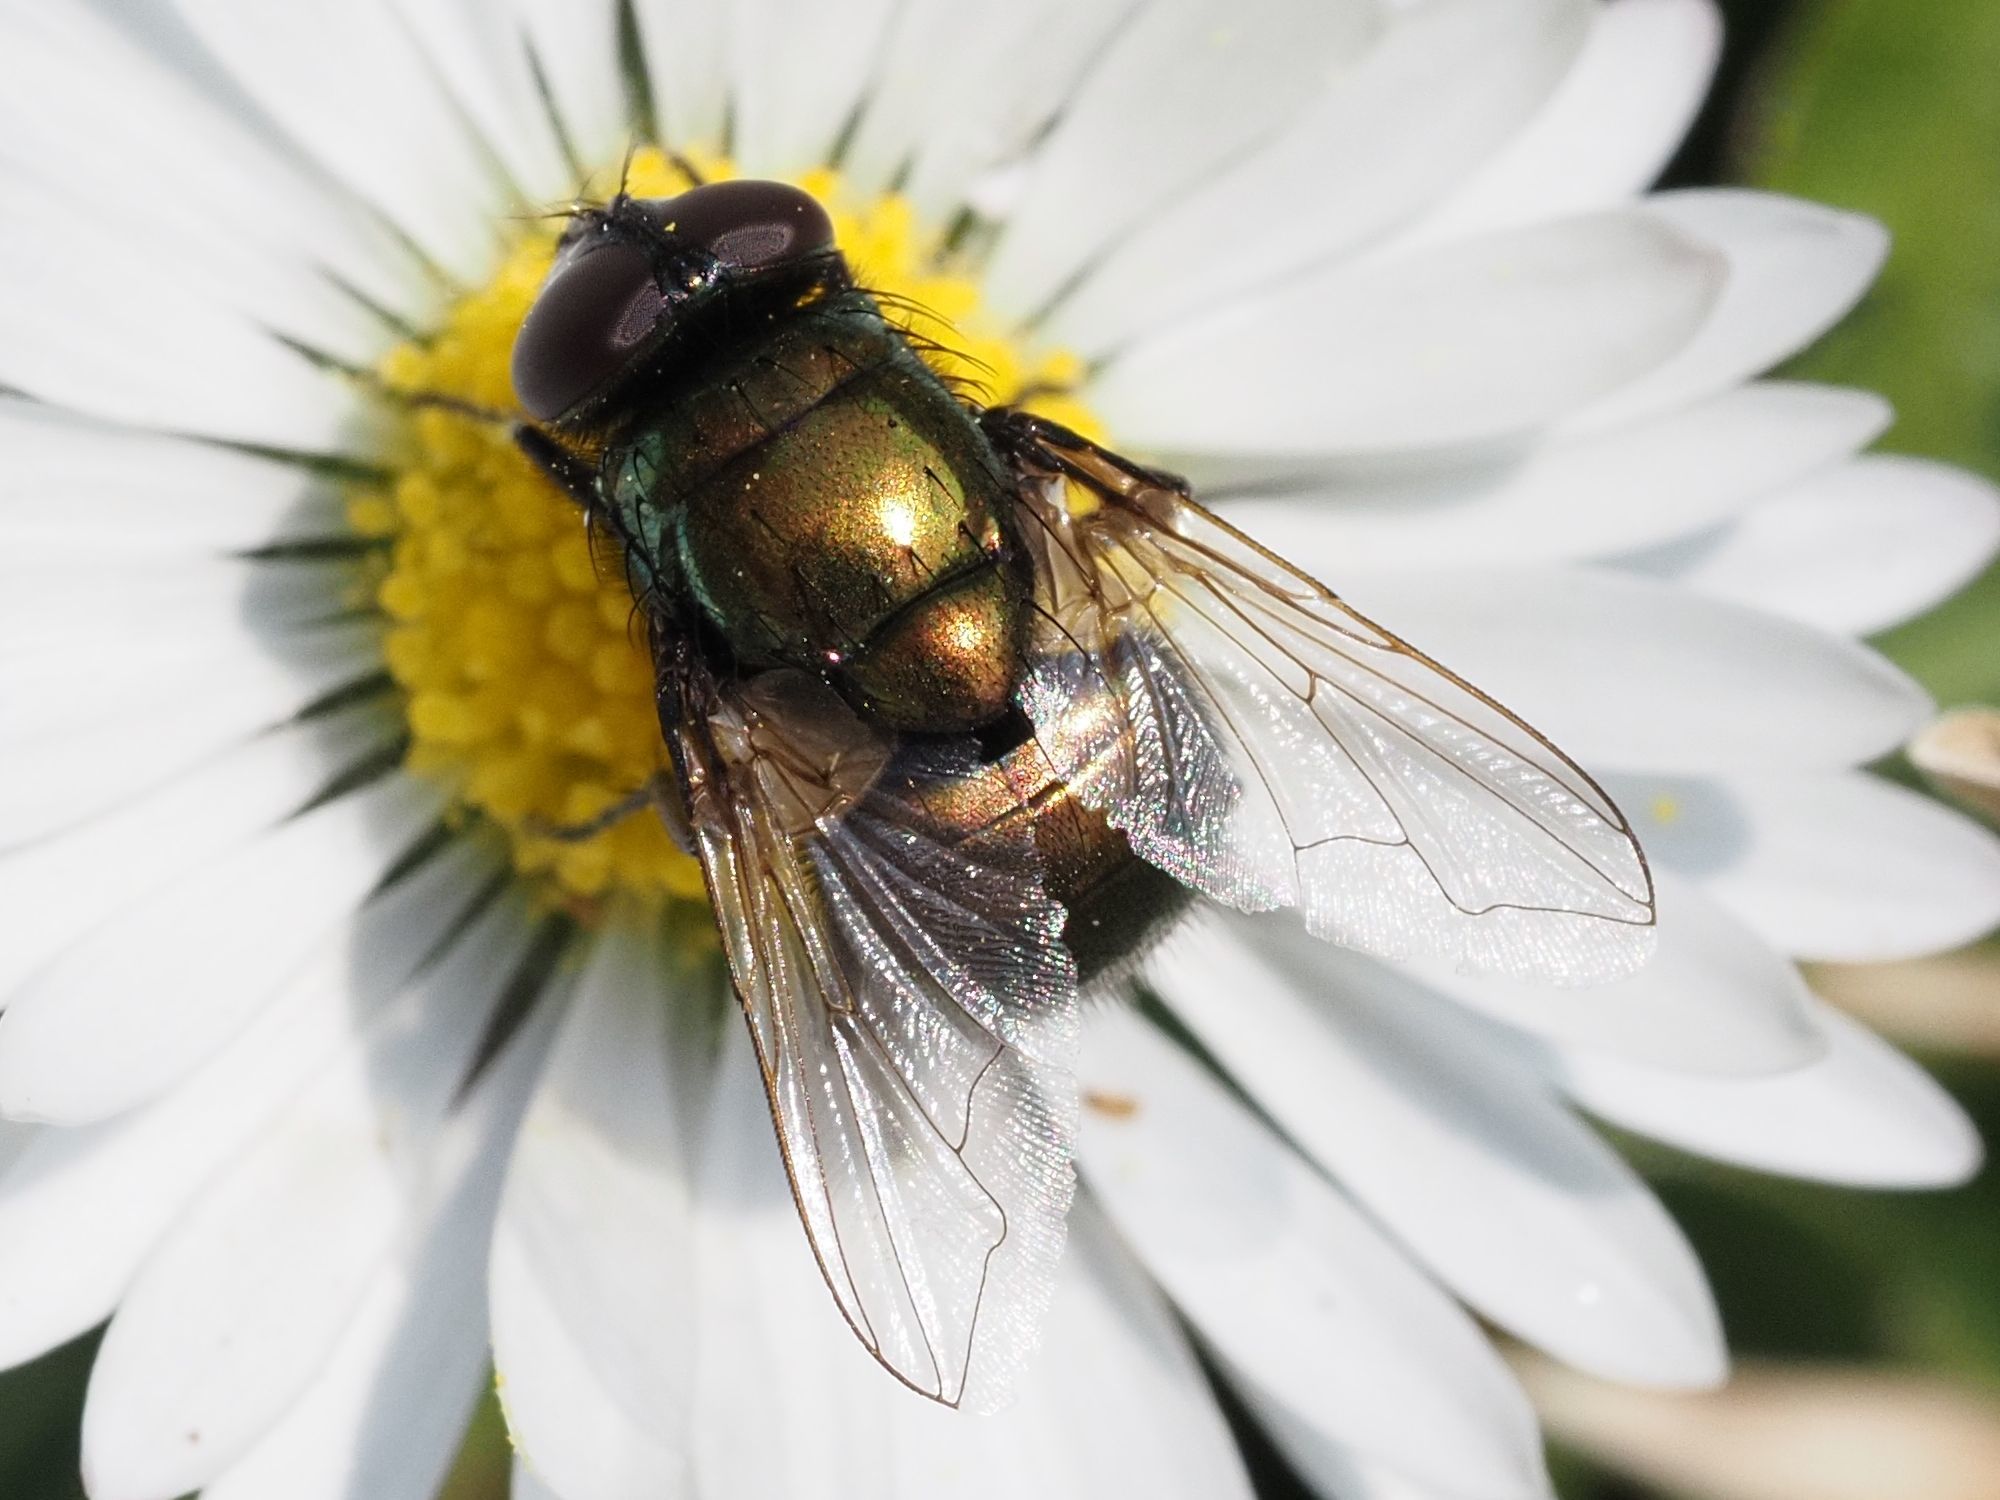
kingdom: Animalia
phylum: Arthropoda
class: Insecta
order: Diptera
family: Muscidae
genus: Neomyia
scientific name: Neomyia cornicina
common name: House fly
